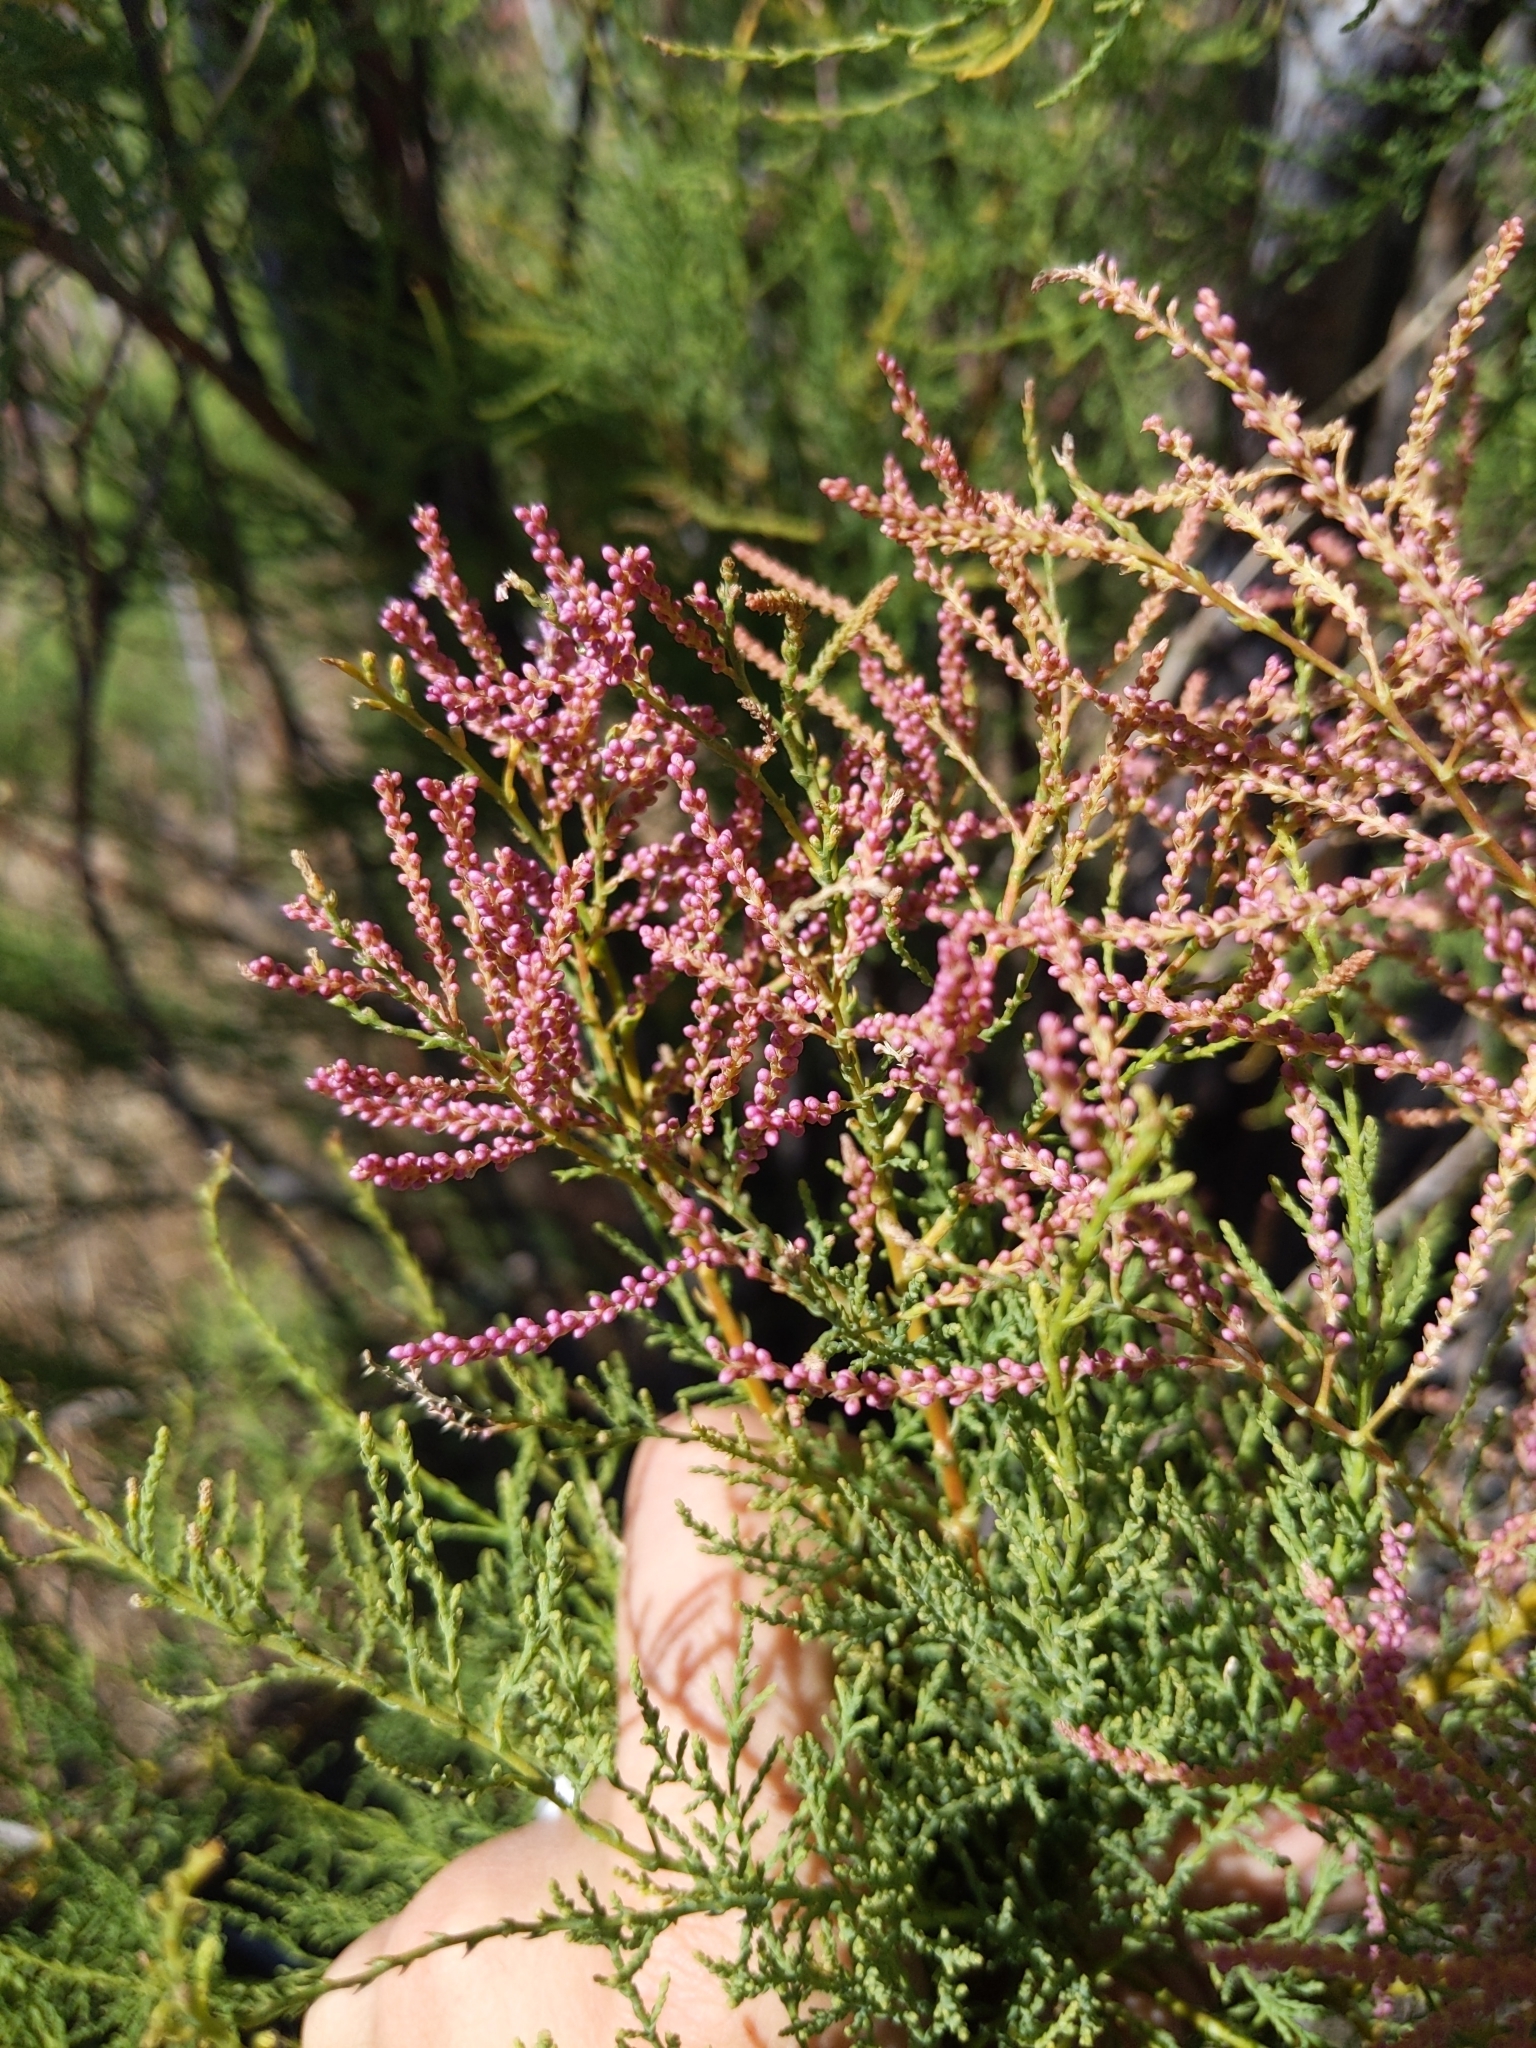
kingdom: Plantae
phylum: Tracheophyta
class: Magnoliopsida
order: Caryophyllales
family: Tamaricaceae
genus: Tamarix
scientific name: Tamarix ramosissima
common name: Pink tamarisk
